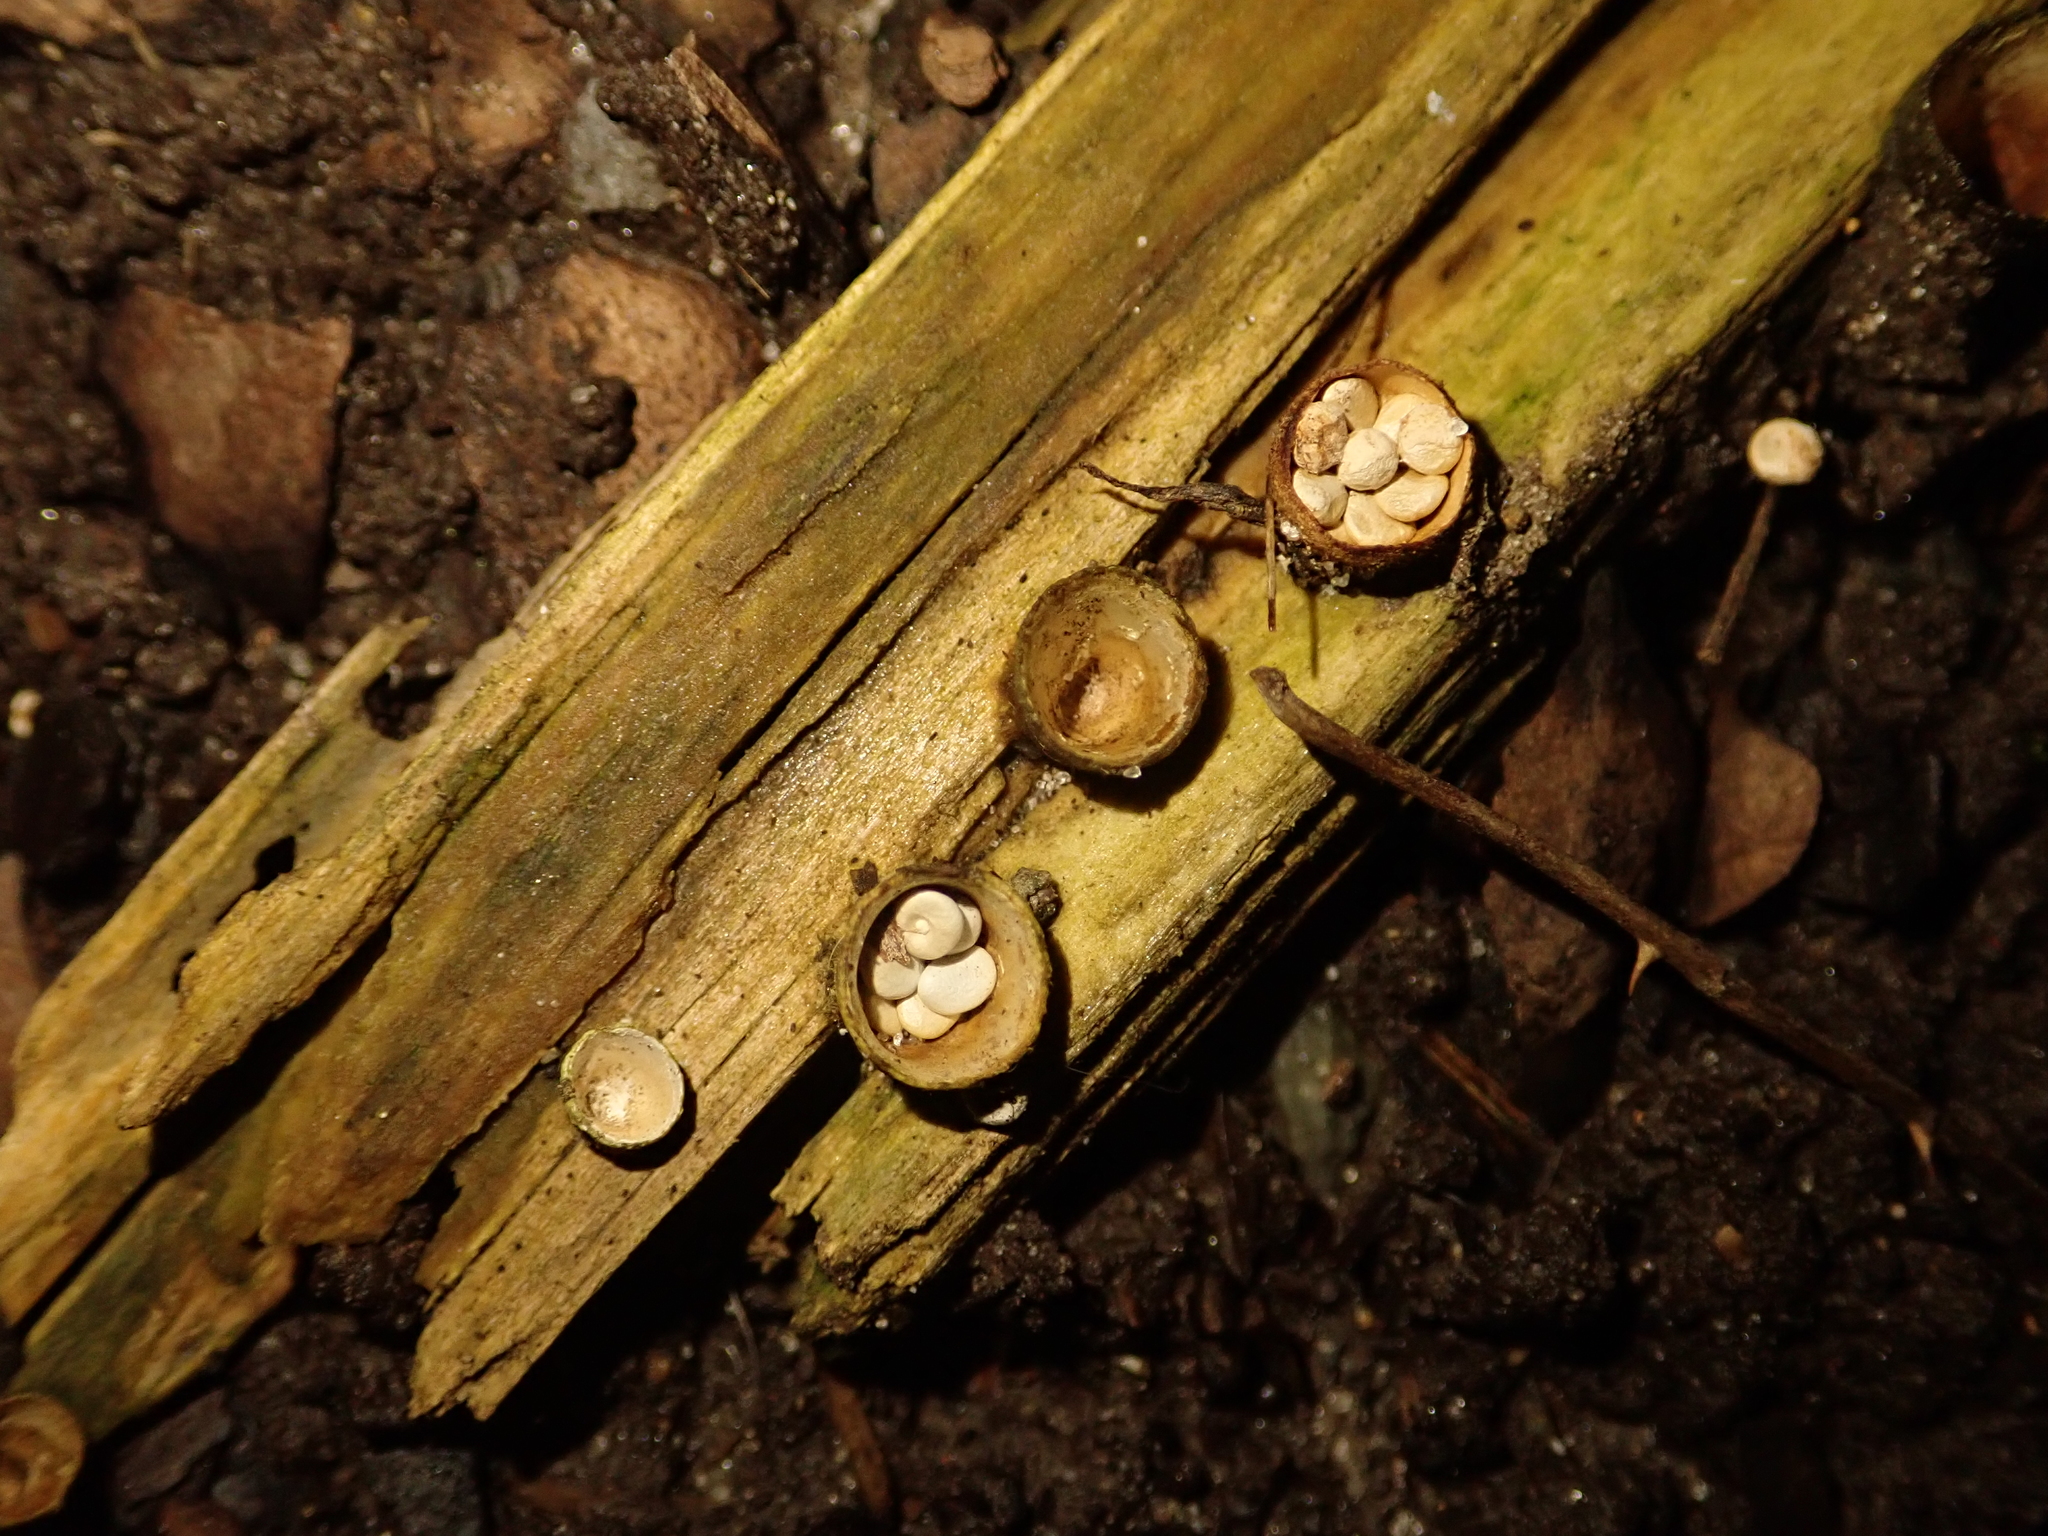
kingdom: Fungi
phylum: Basidiomycota
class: Agaricomycetes
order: Agaricales
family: Nidulariaceae
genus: Crucibulum
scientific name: Crucibulum laeve
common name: Common bird's nest
